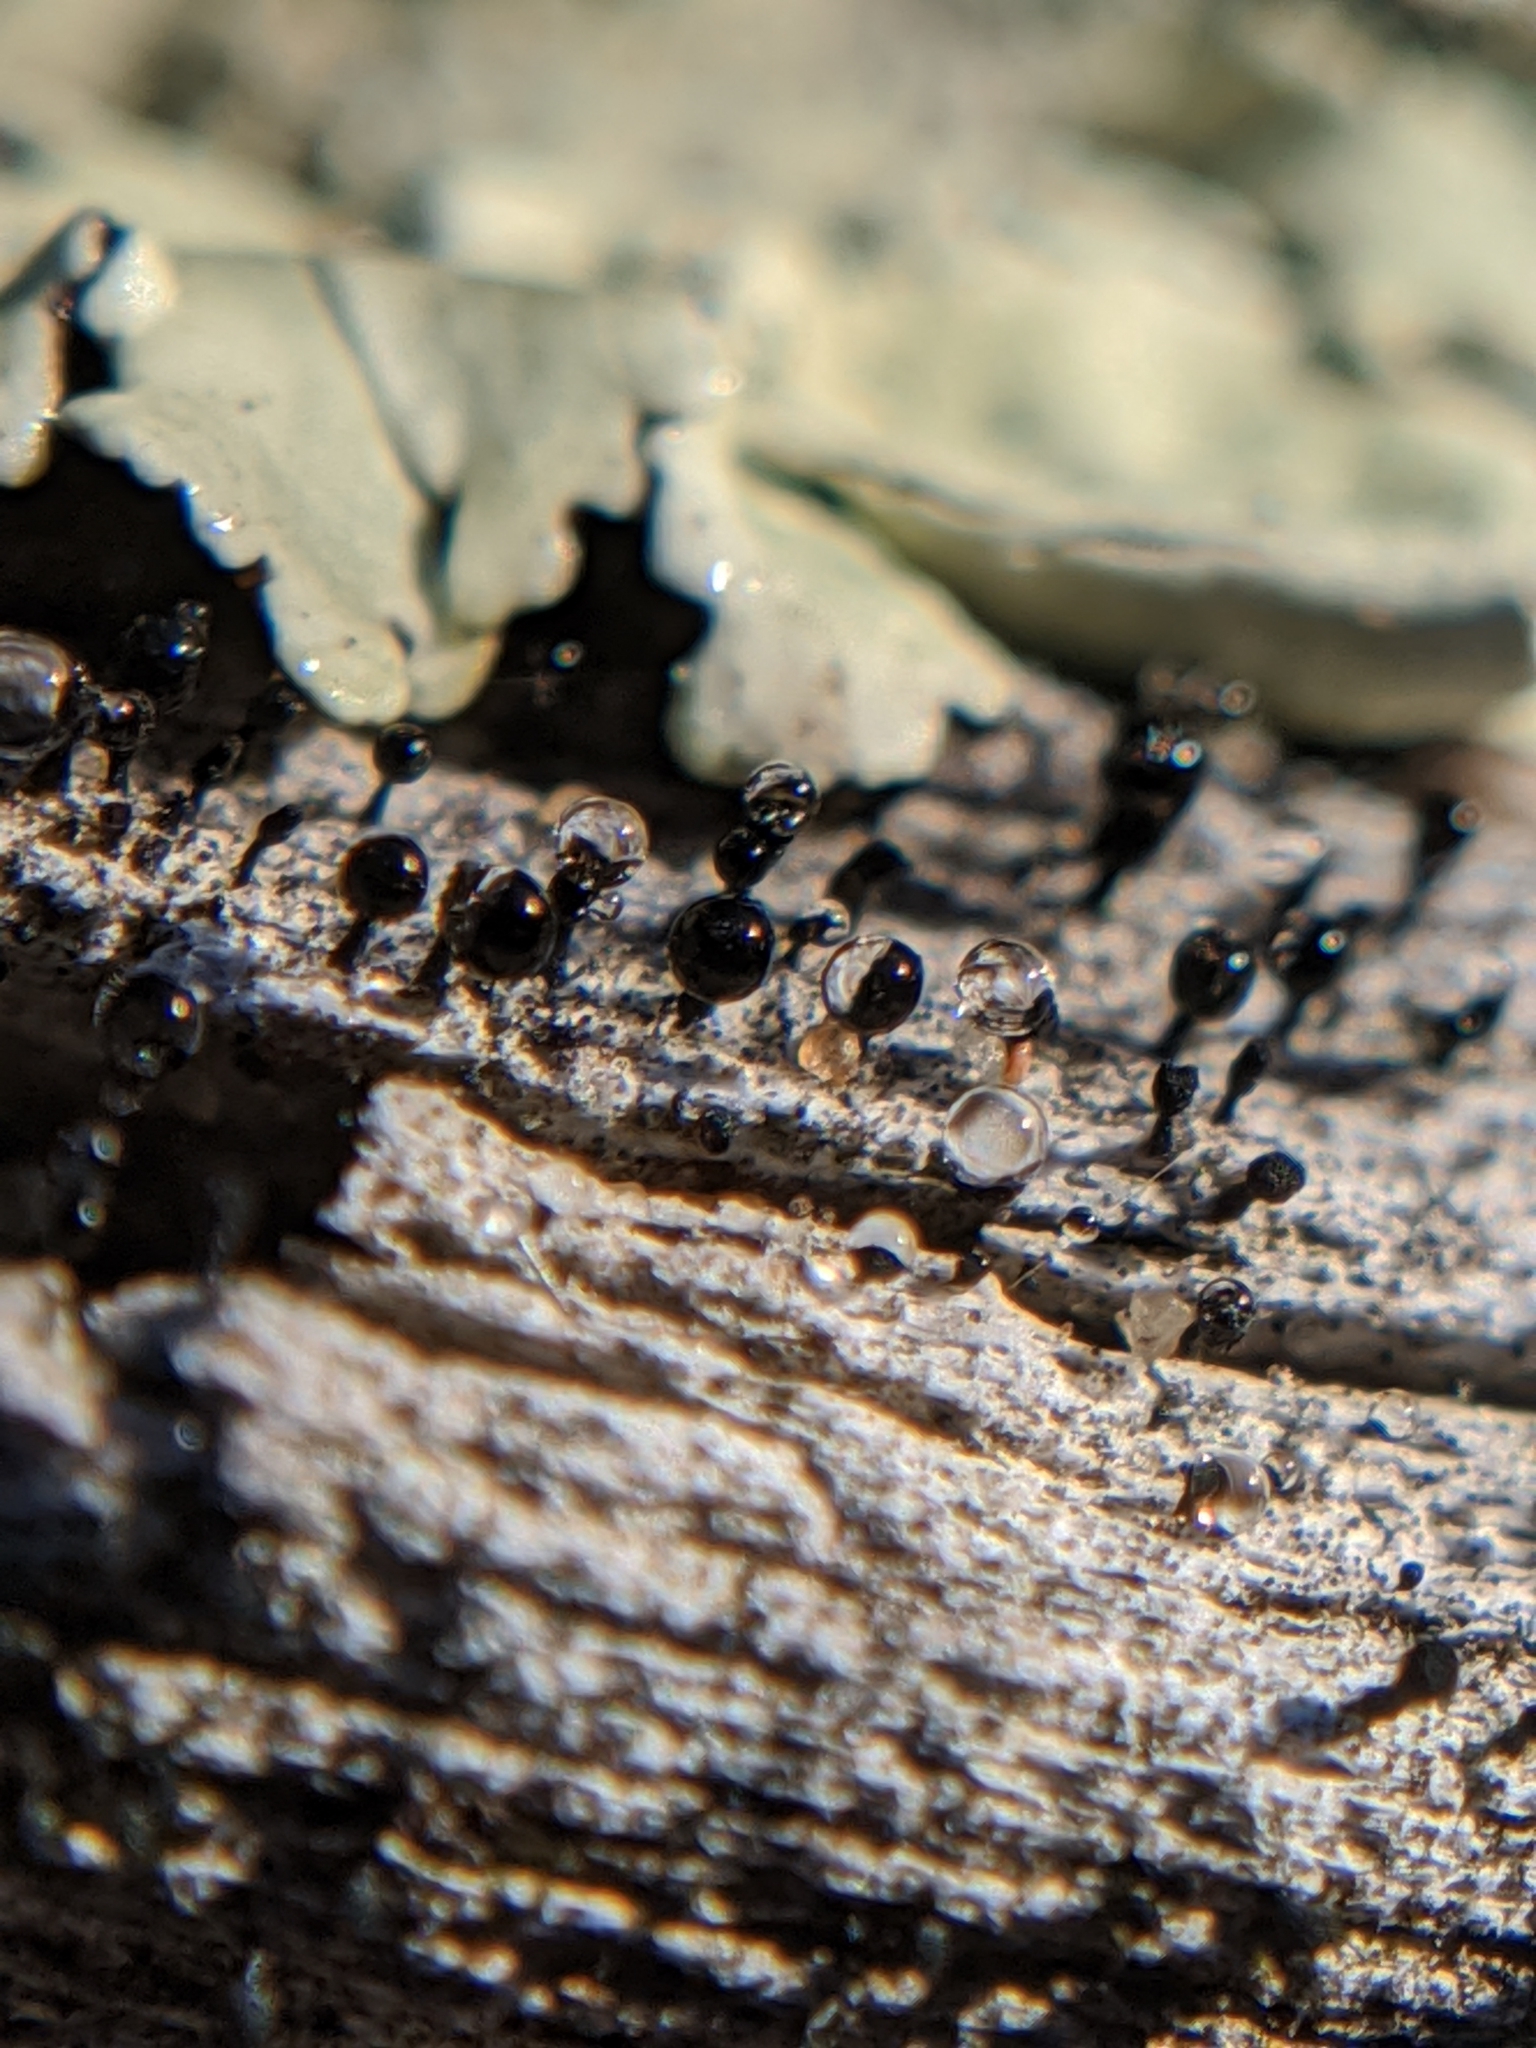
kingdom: Fungi
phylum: Ascomycota
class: Lecanoromycetes
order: Caliciales
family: Caliciaceae
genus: Calicium
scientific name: Calicium abietinum
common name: Black stubble lichen
